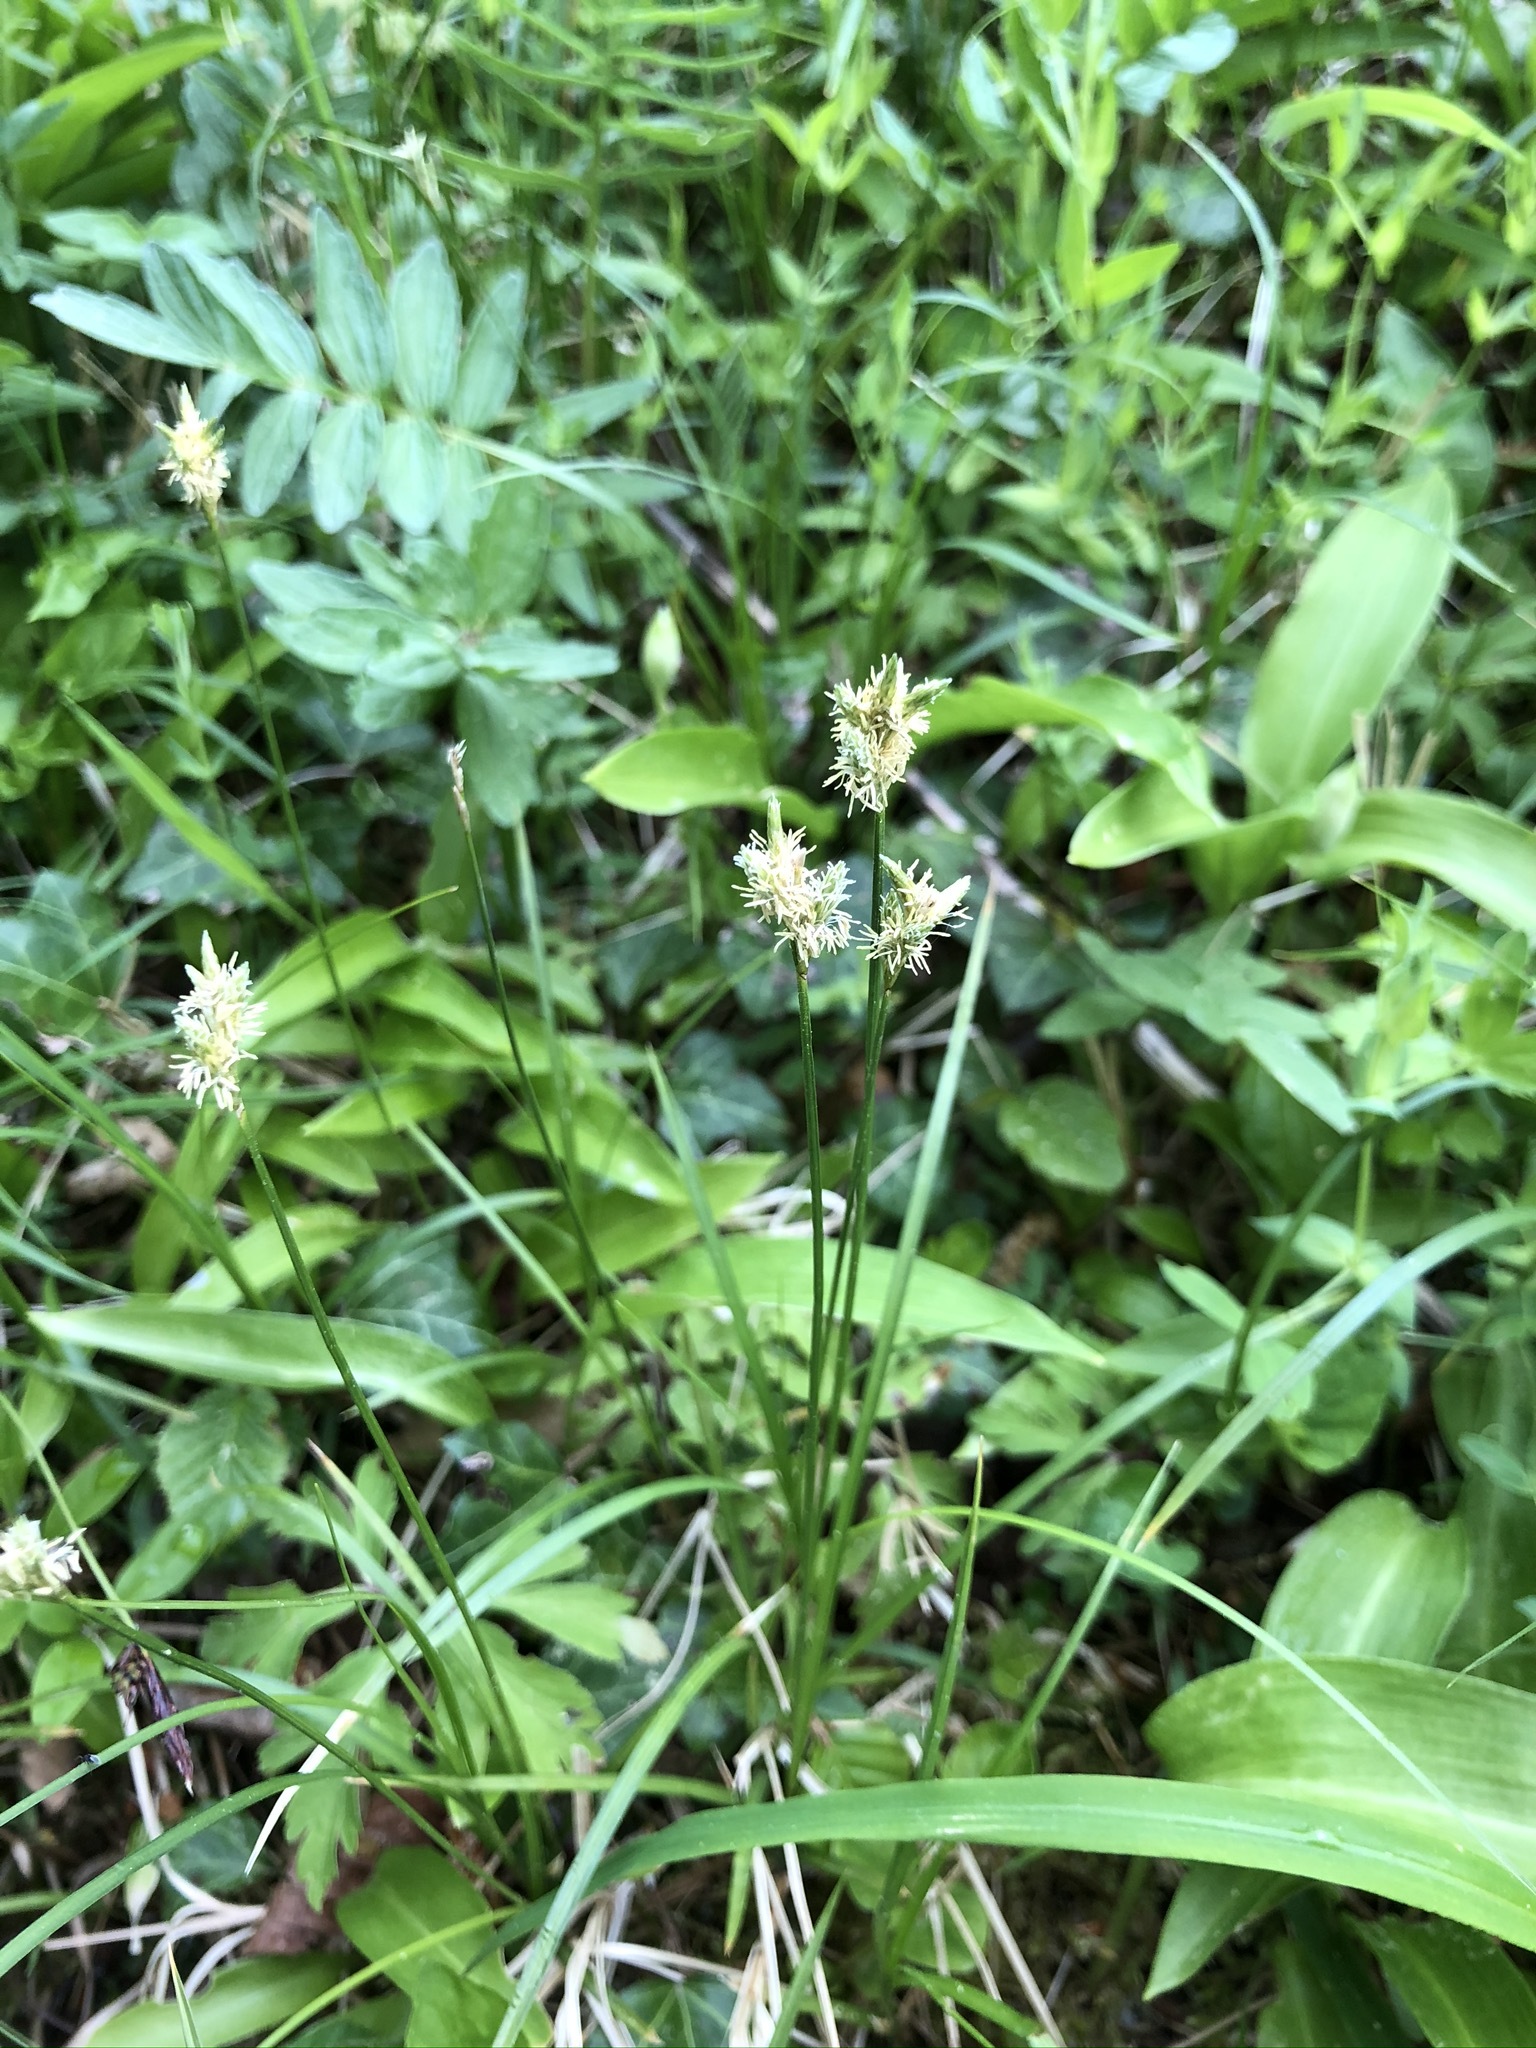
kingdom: Plantae
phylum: Tracheophyta
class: Liliopsida
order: Poales
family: Cyperaceae
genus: Carex
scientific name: Carex brizoides
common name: Quaking-grass sedge
